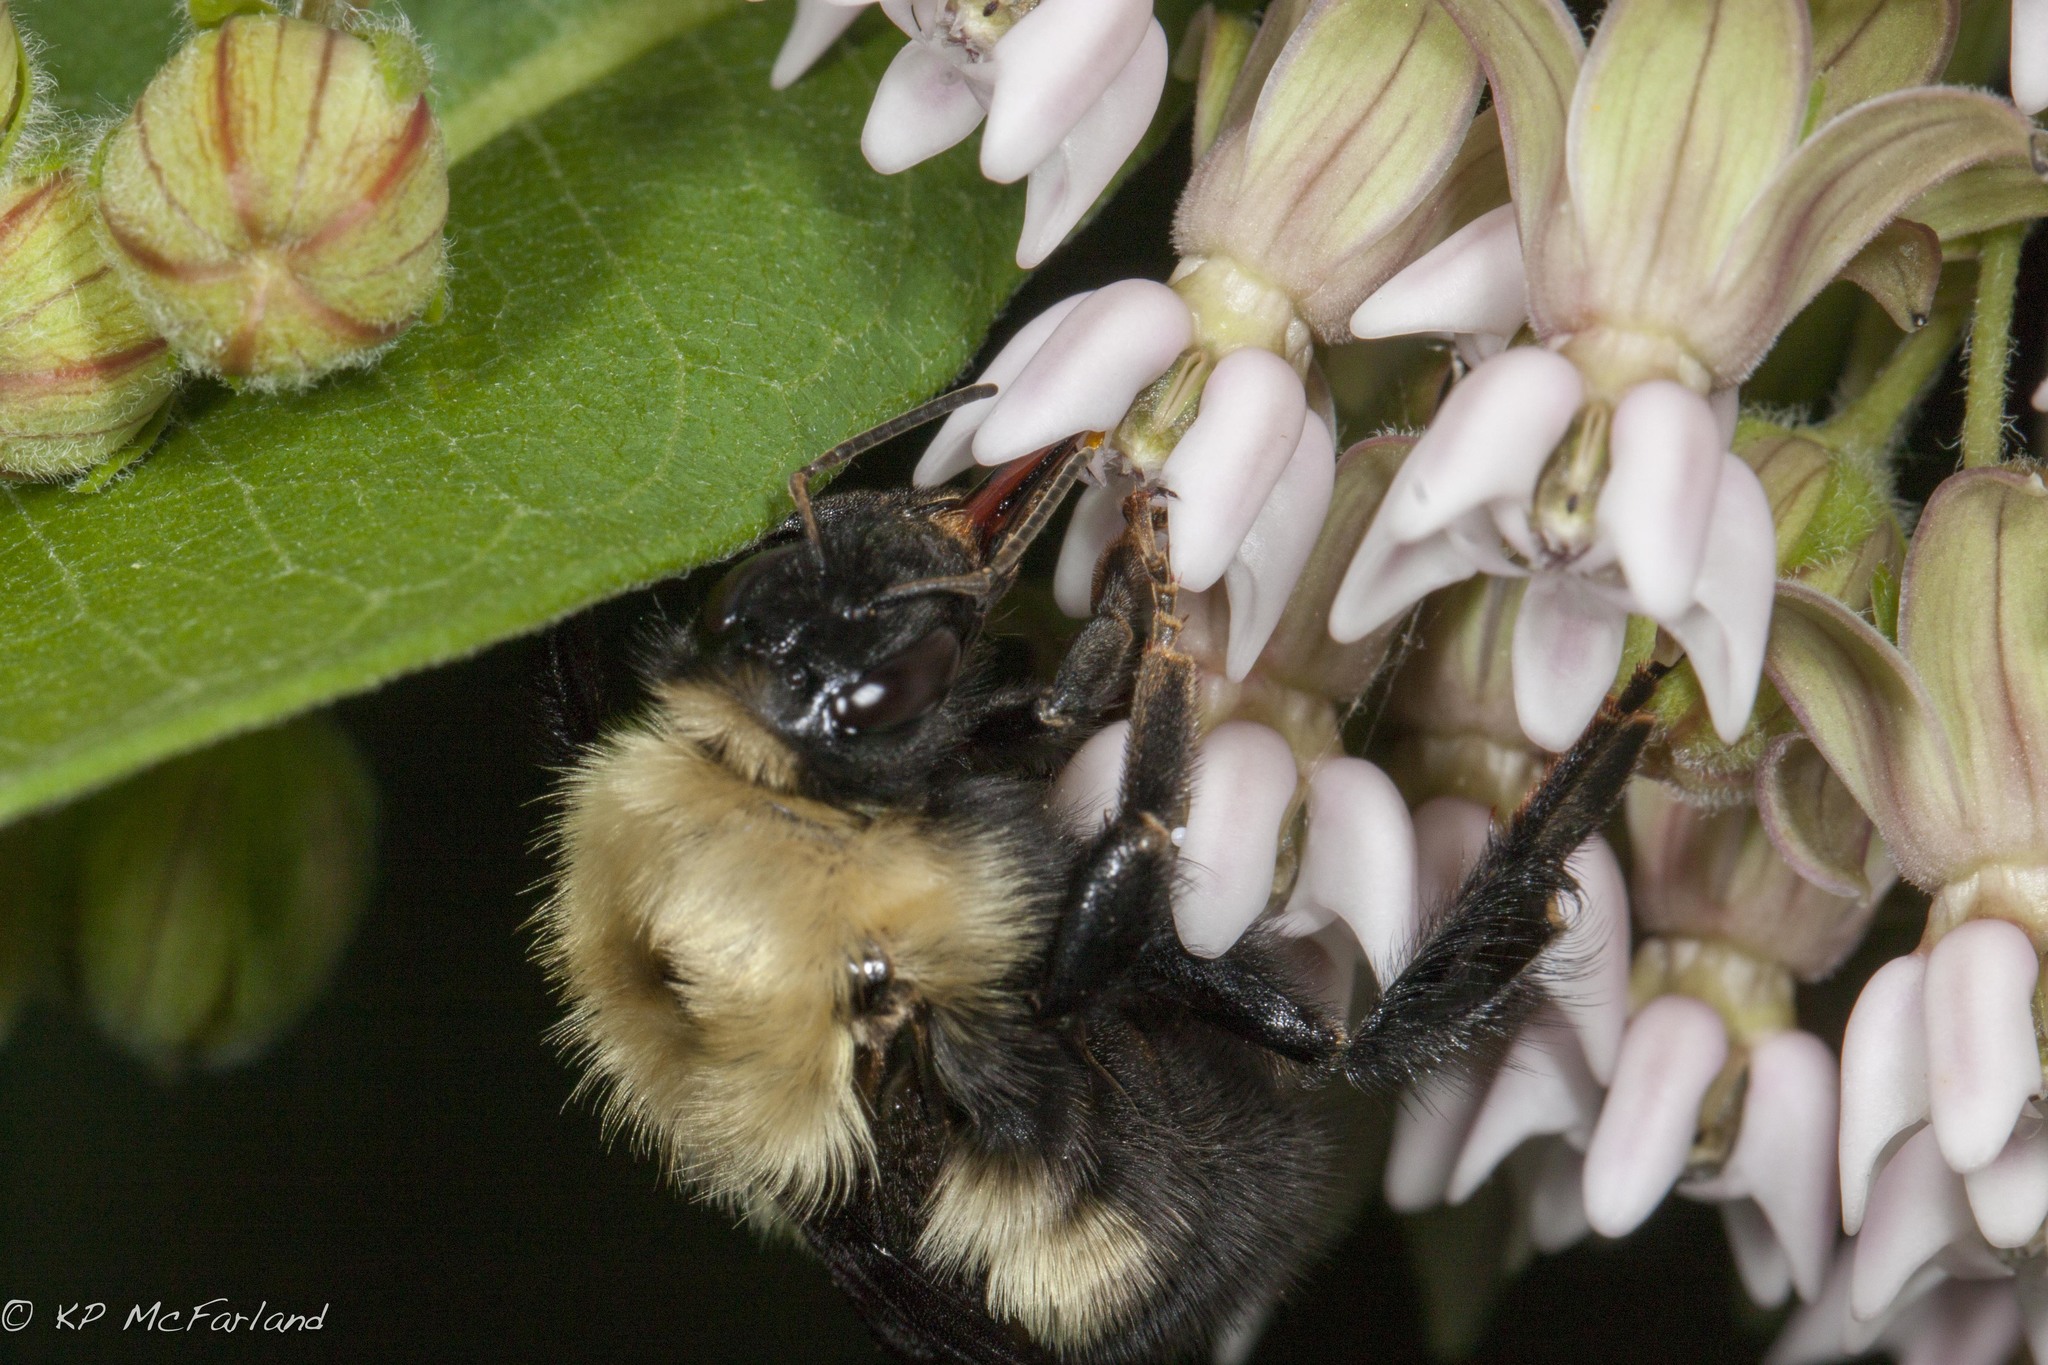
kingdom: Animalia
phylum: Arthropoda
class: Insecta
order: Hymenoptera
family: Apidae
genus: Bombus
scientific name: Bombus perplexus
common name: Confusing bumble bee
